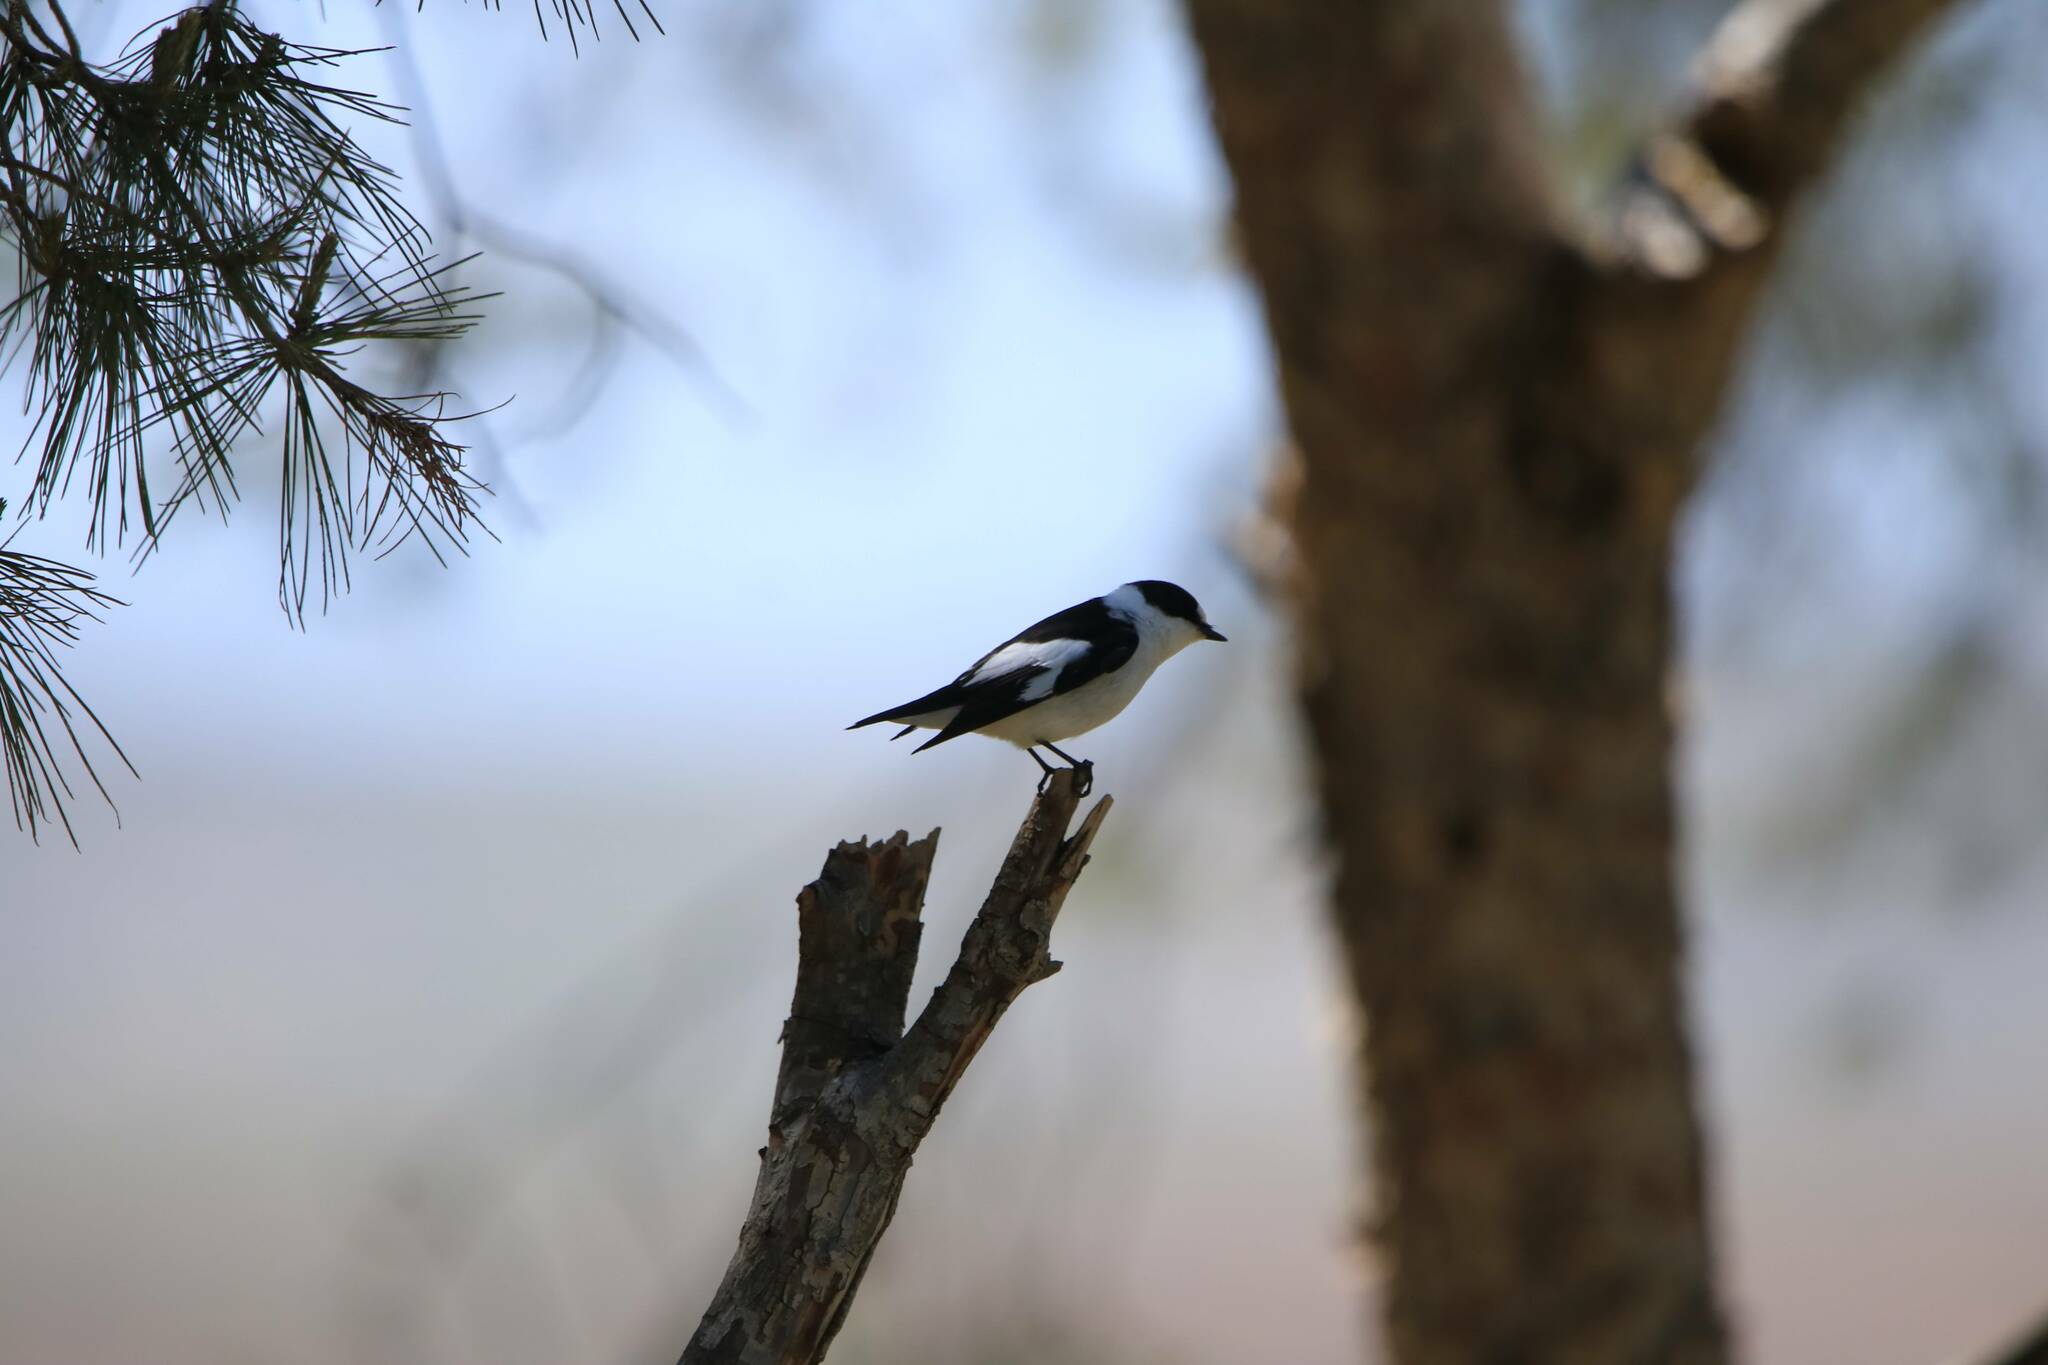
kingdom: Animalia
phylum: Chordata
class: Aves
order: Passeriformes
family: Muscicapidae
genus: Ficedula
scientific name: Ficedula albicollis
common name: Collared flycatcher
